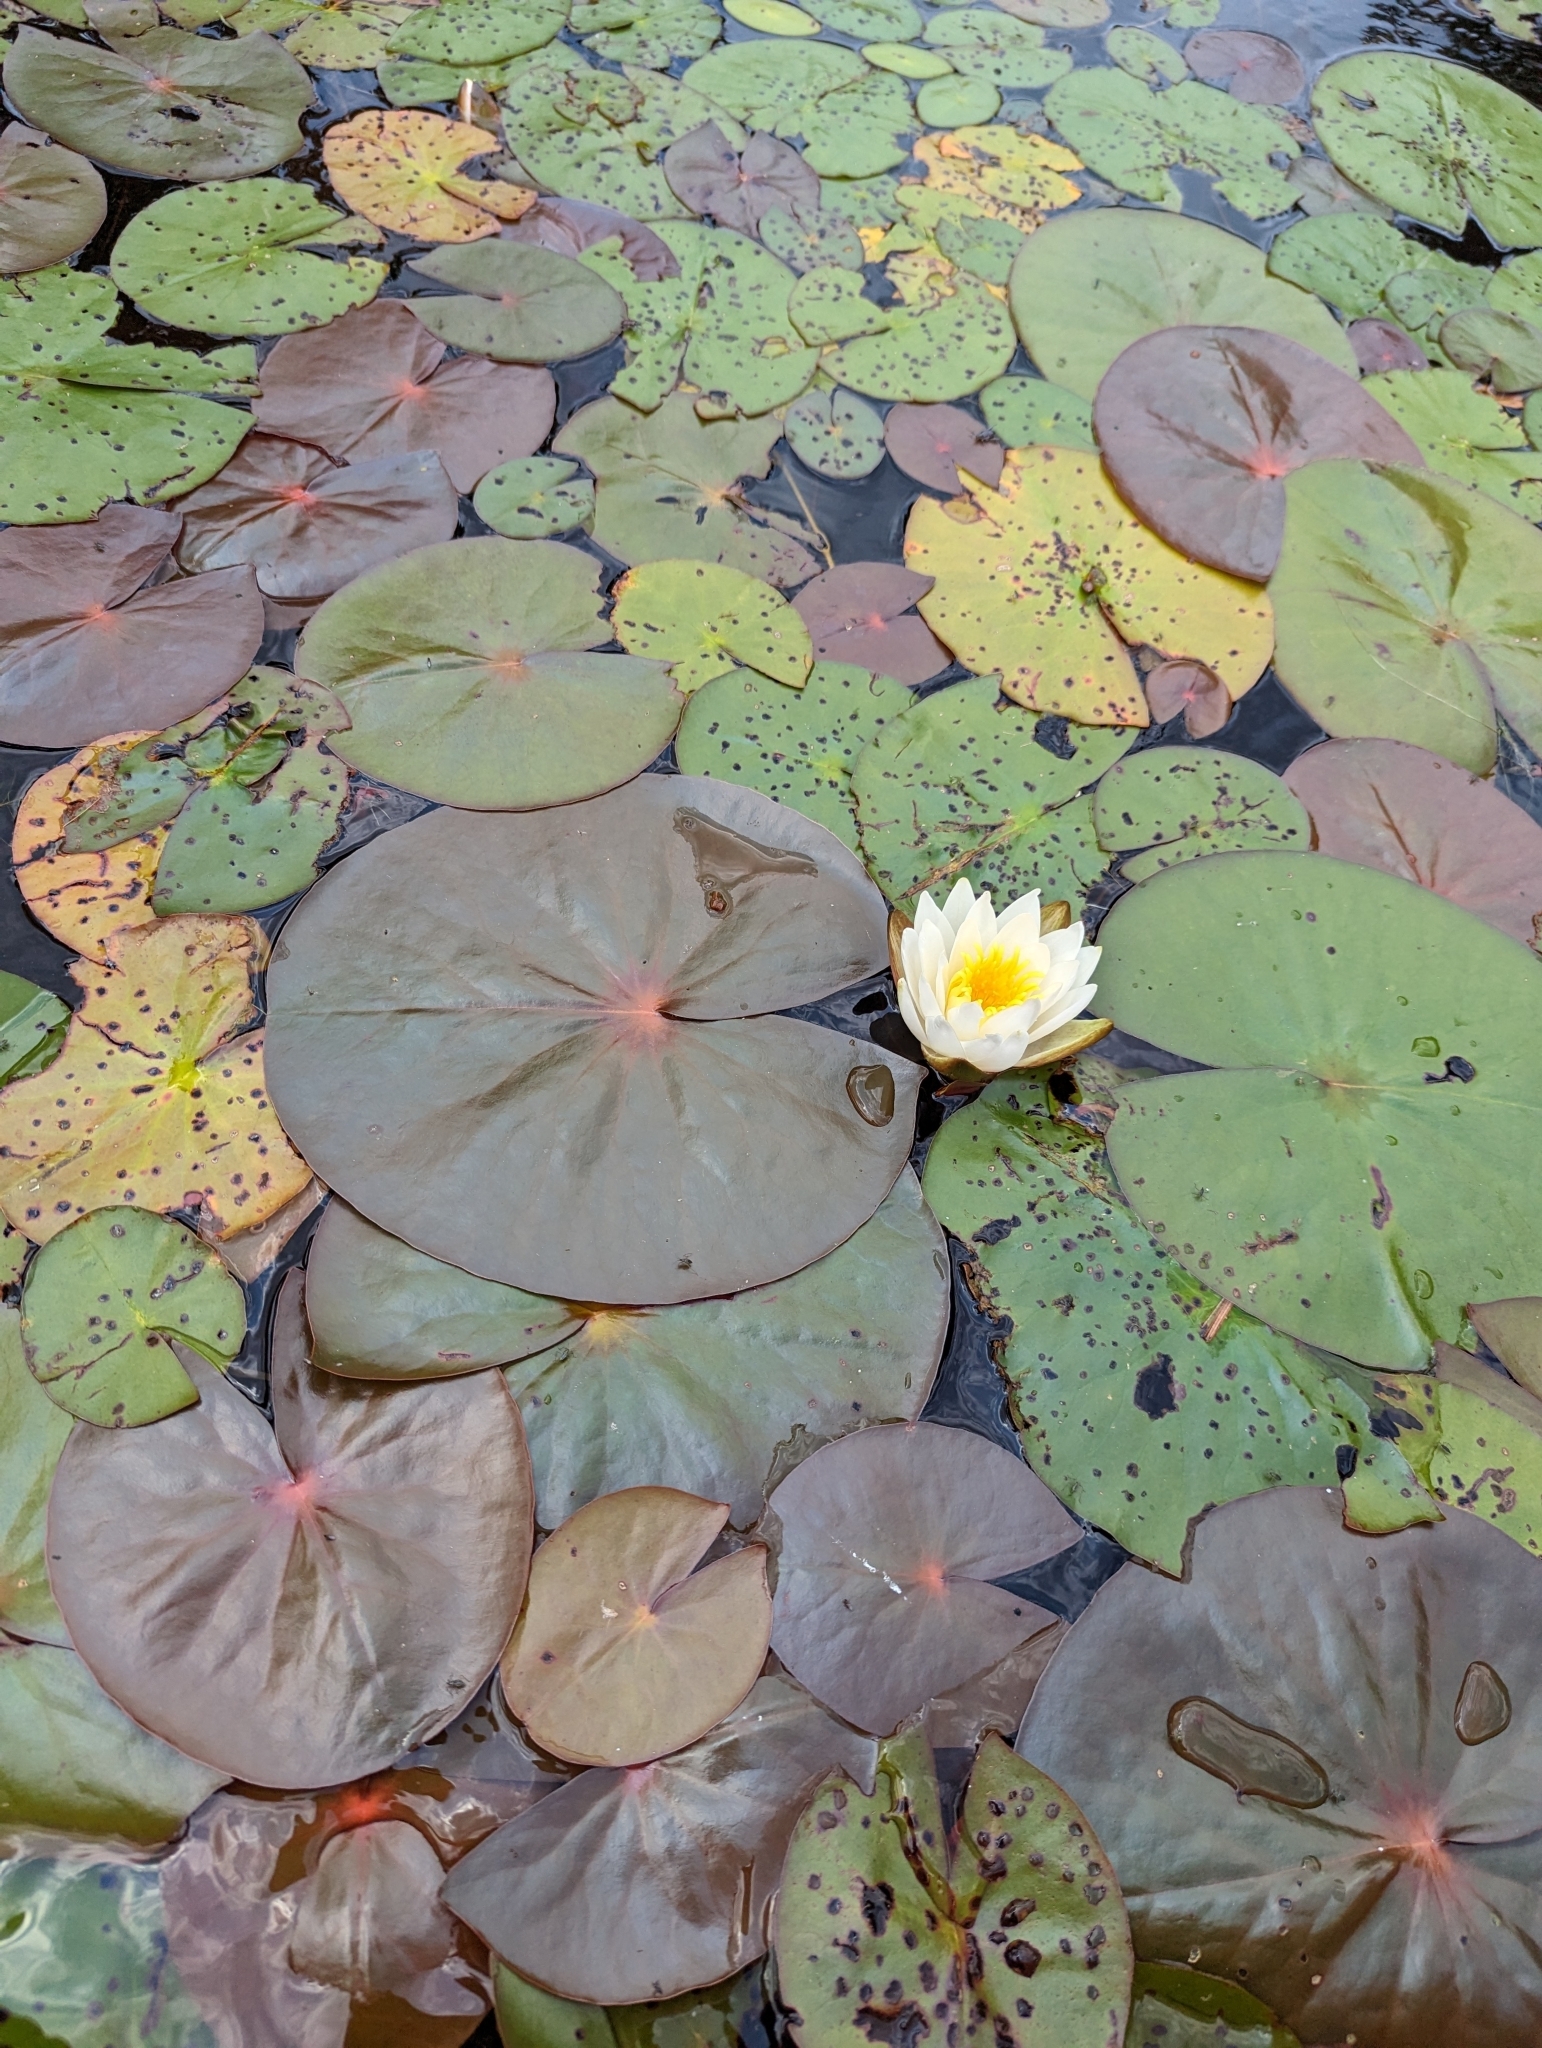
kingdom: Plantae
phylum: Tracheophyta
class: Magnoliopsida
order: Nymphaeales
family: Nymphaeaceae
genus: Nymphaea
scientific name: Nymphaea odorata
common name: Fragrant water-lily
